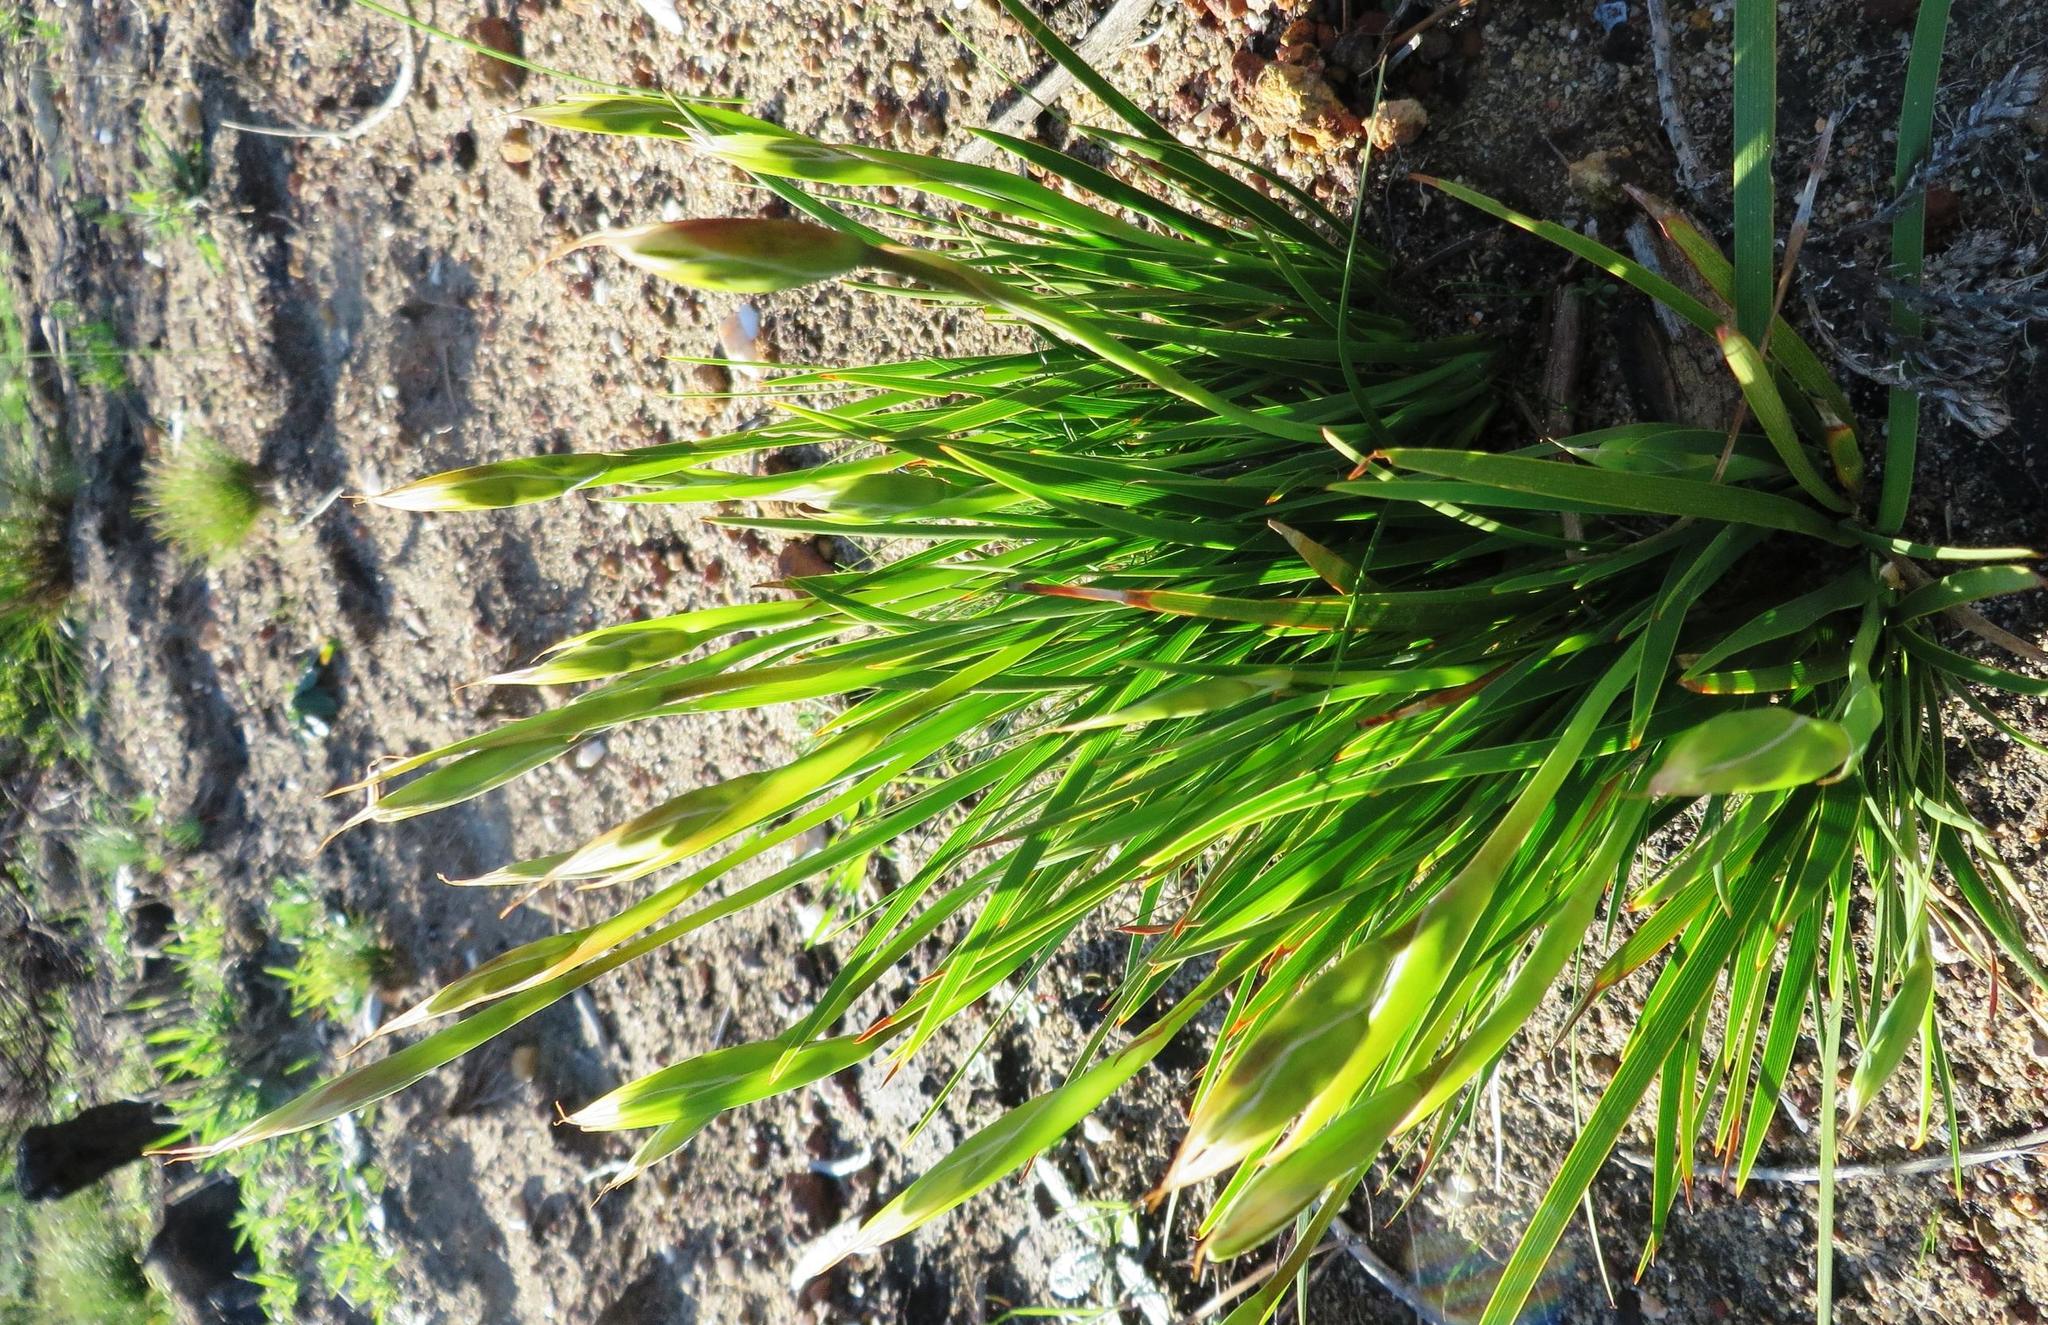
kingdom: Plantae
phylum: Tracheophyta
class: Liliopsida
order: Asparagales
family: Iridaceae
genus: Aristea
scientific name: Aristea cantharophila
